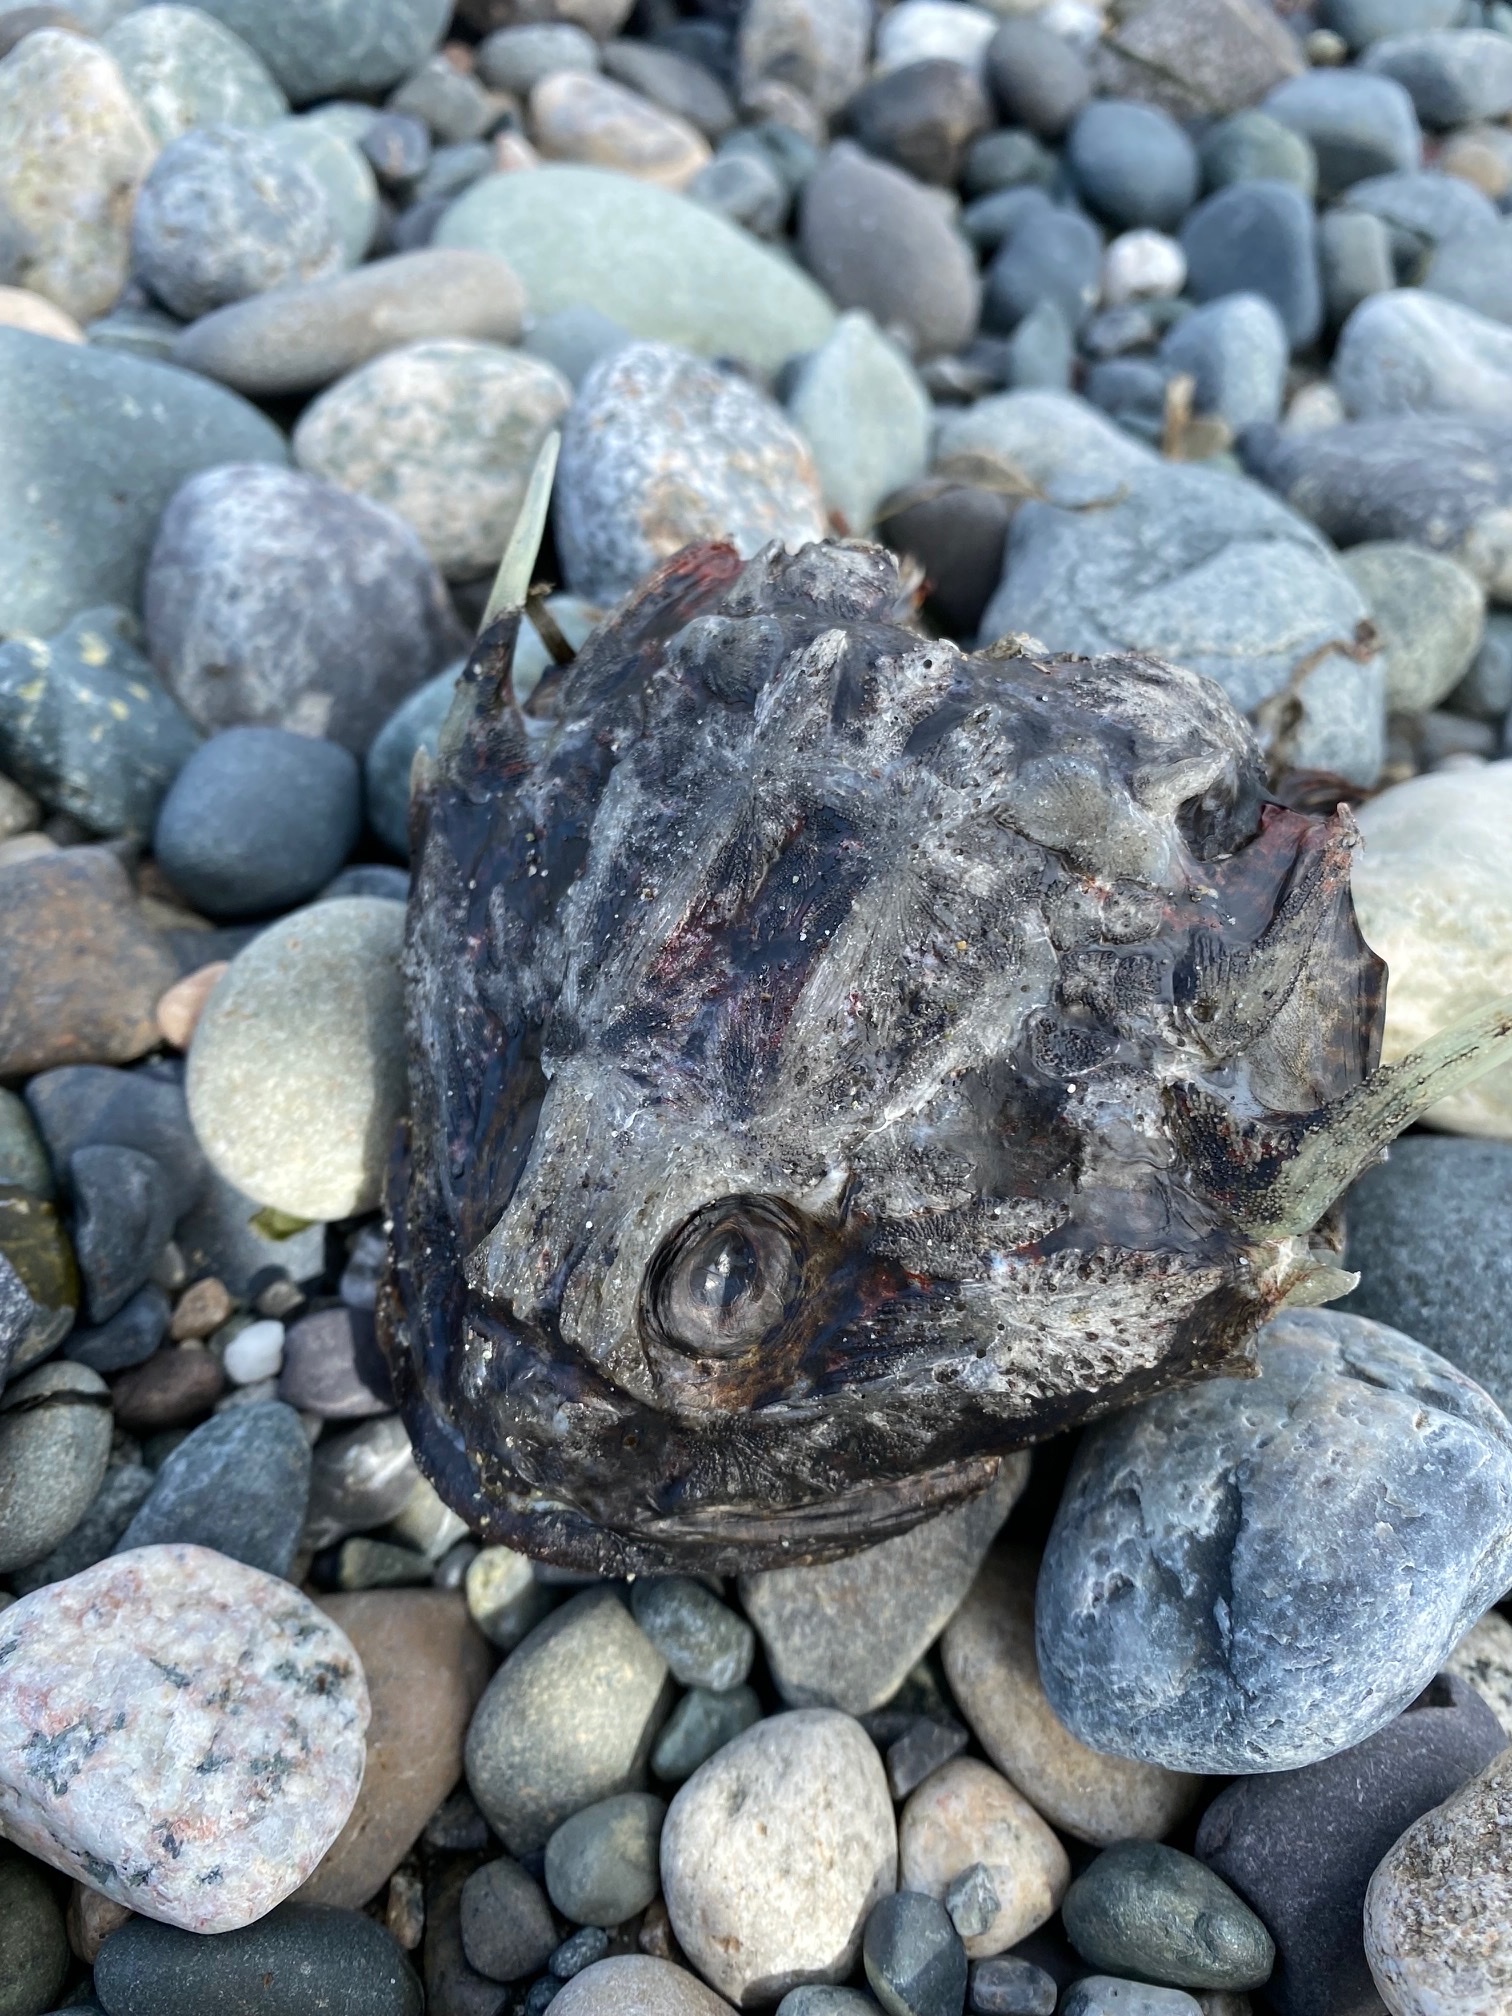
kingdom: Animalia
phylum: Chordata
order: Scorpaeniformes
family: Cottidae
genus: Enophrys
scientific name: Enophrys bison
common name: Buffalo sculpin
